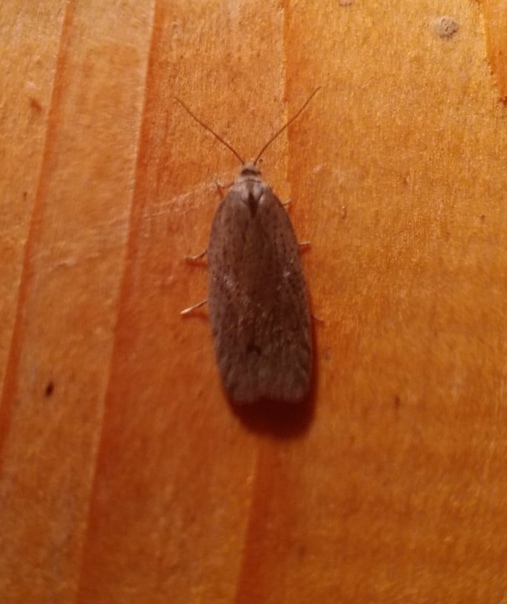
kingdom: Animalia
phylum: Arthropoda
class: Insecta
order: Lepidoptera
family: Tortricidae
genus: Acleris
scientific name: Acleris lipsiana
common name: Northern button
